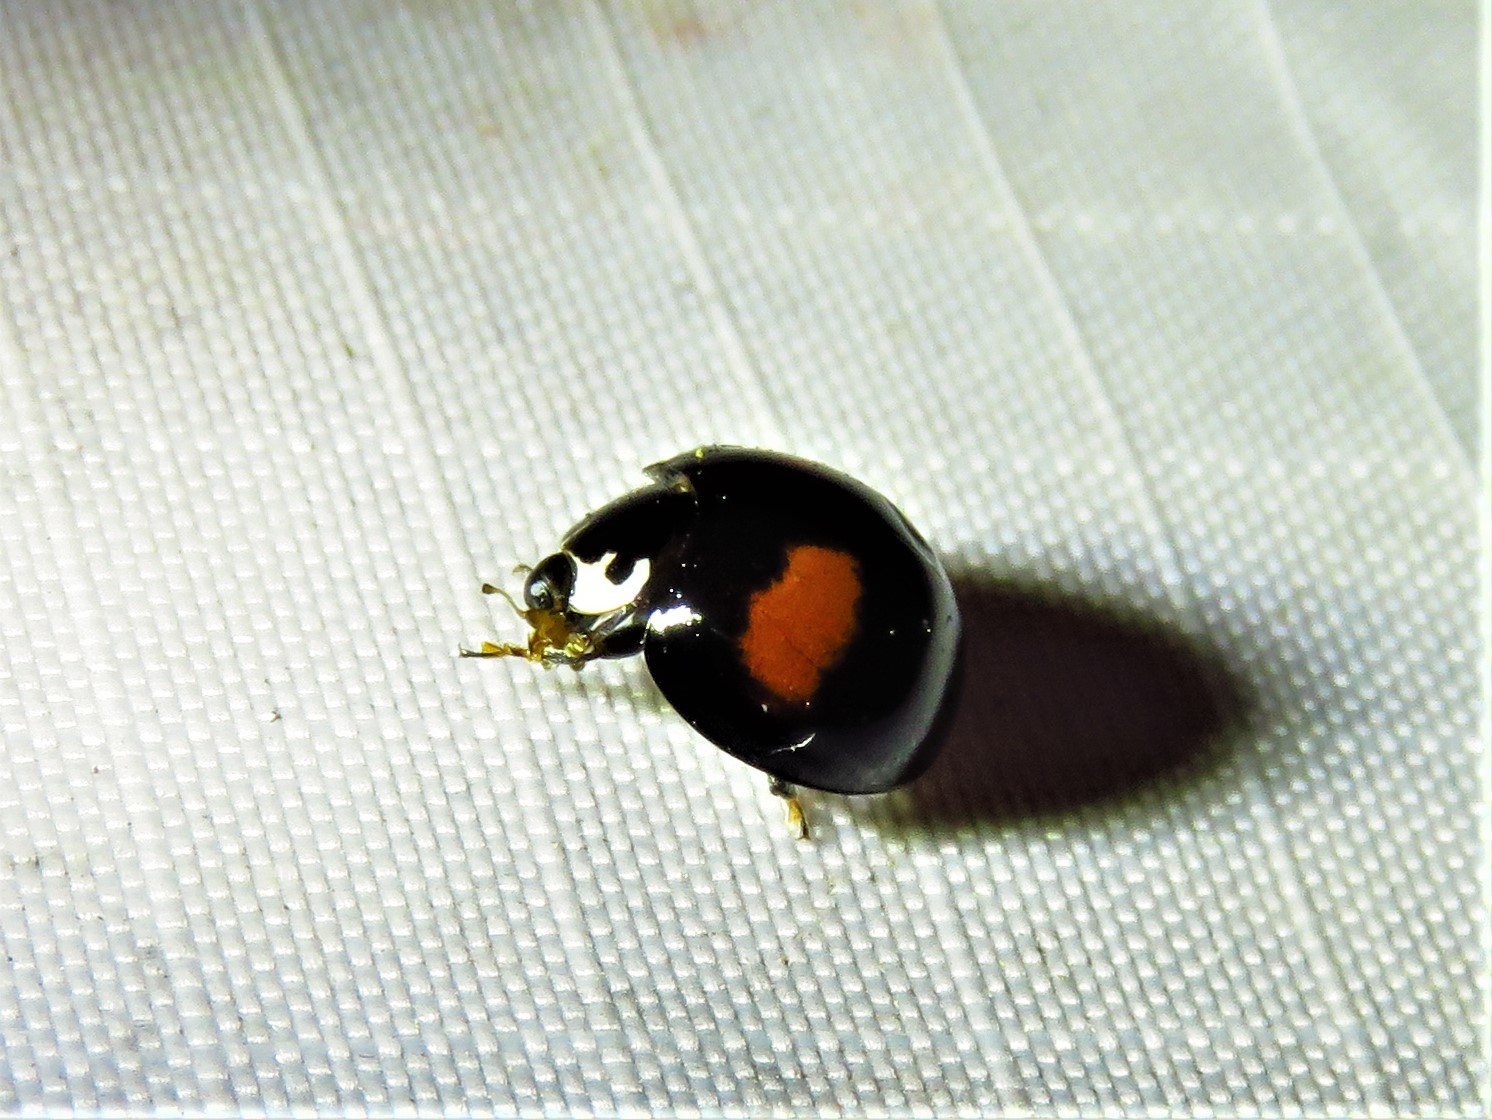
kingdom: Animalia
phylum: Arthropoda
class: Insecta
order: Coleoptera
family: Coccinellidae
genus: Olla
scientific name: Olla v-nigrum
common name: Ashy gray lady beetle
